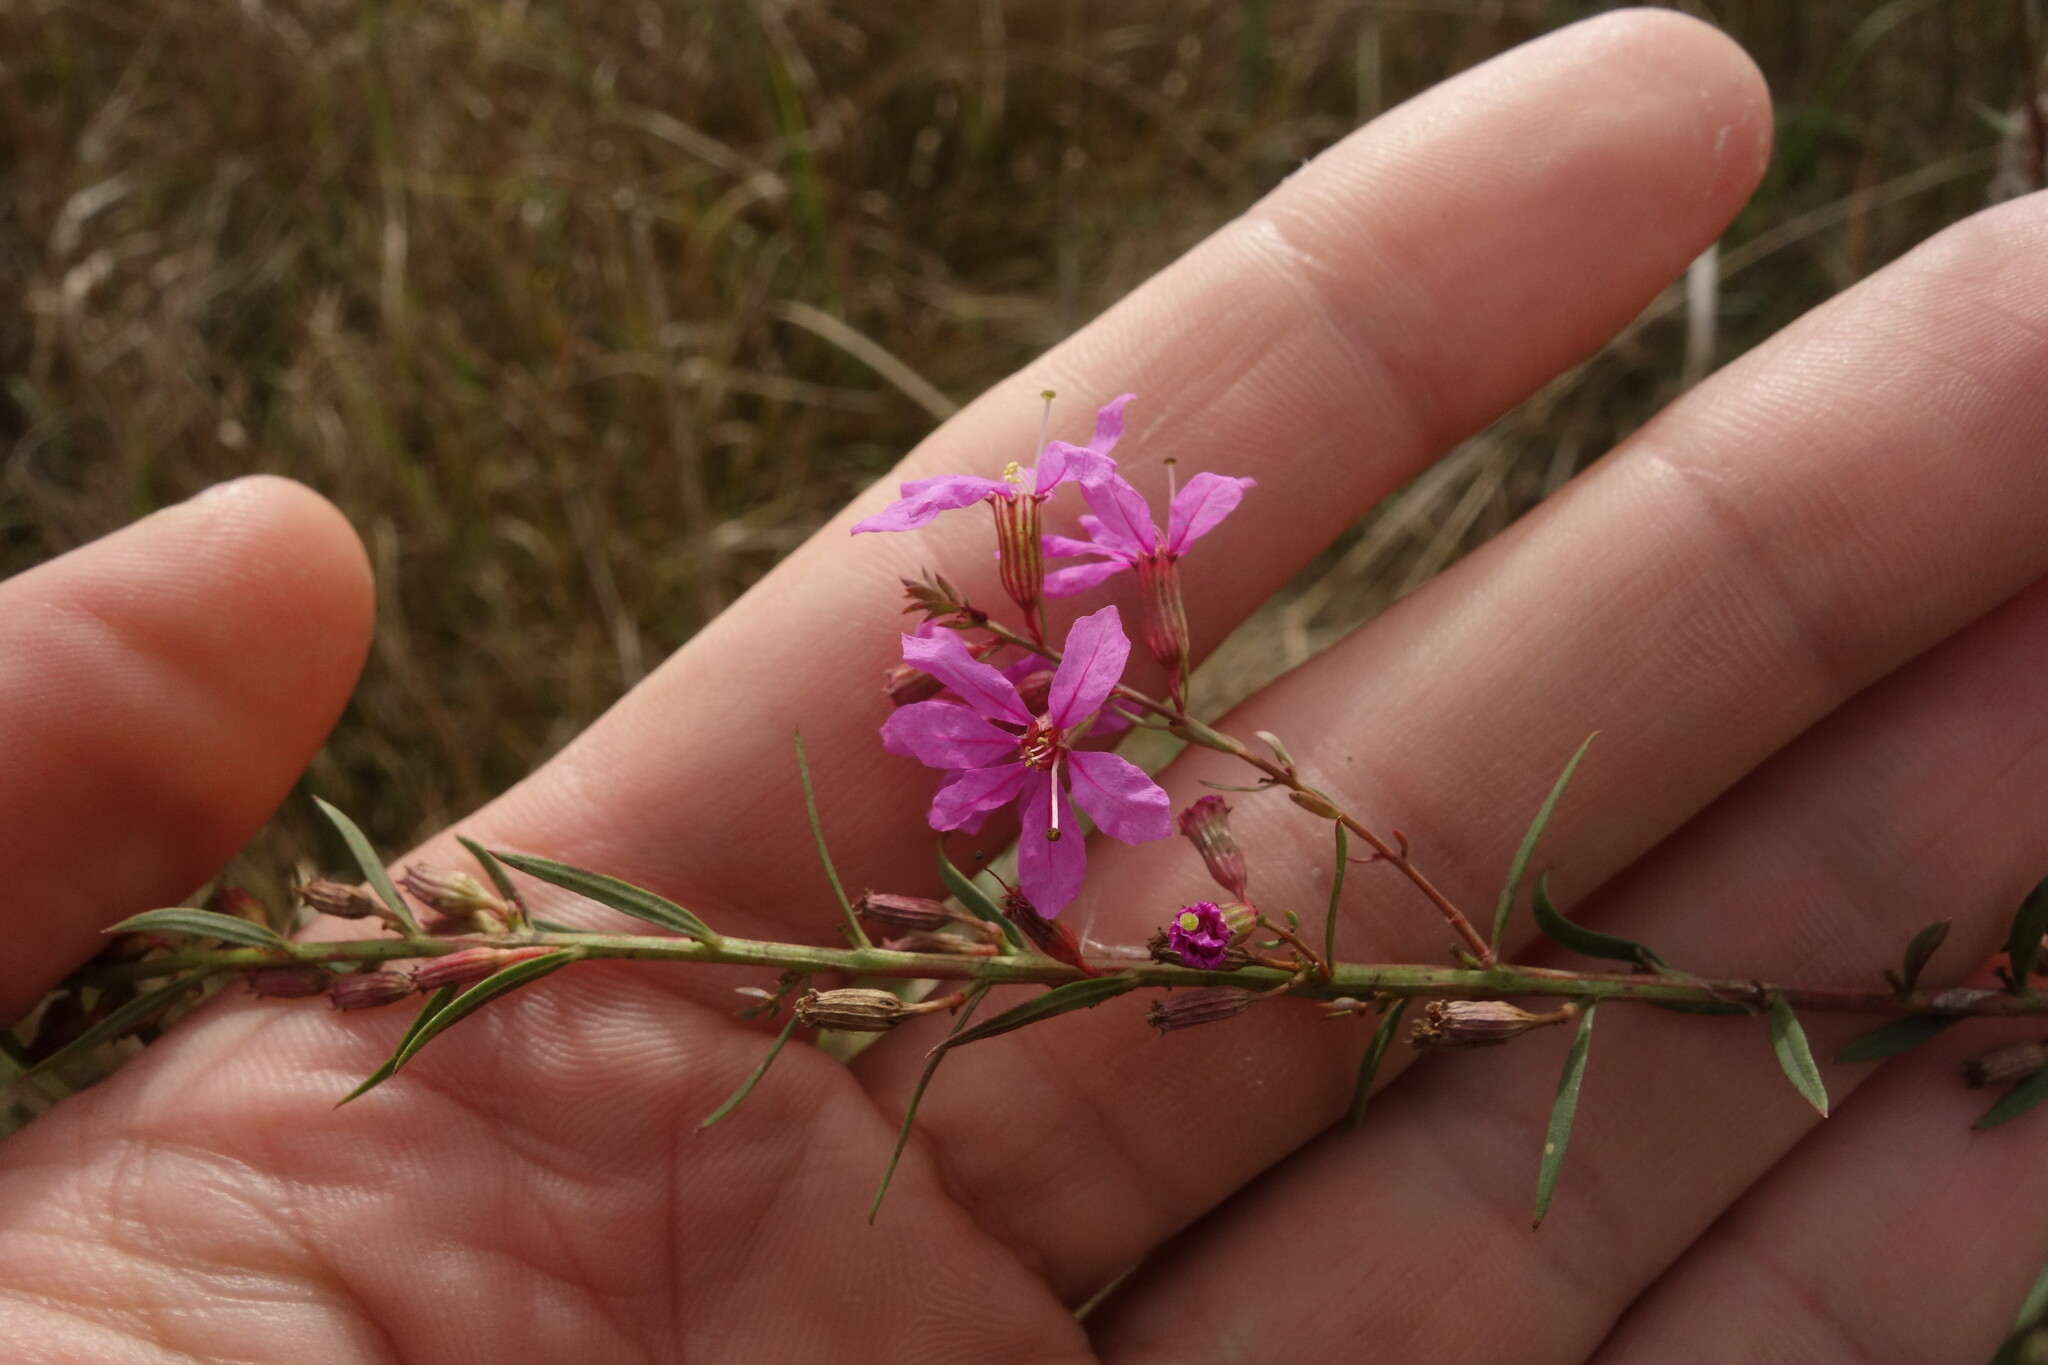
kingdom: Plantae
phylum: Tracheophyta
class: Magnoliopsida
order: Myrtales
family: Lythraceae
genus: Lythrum
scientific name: Lythrum virgatum
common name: European wand loosestrife
